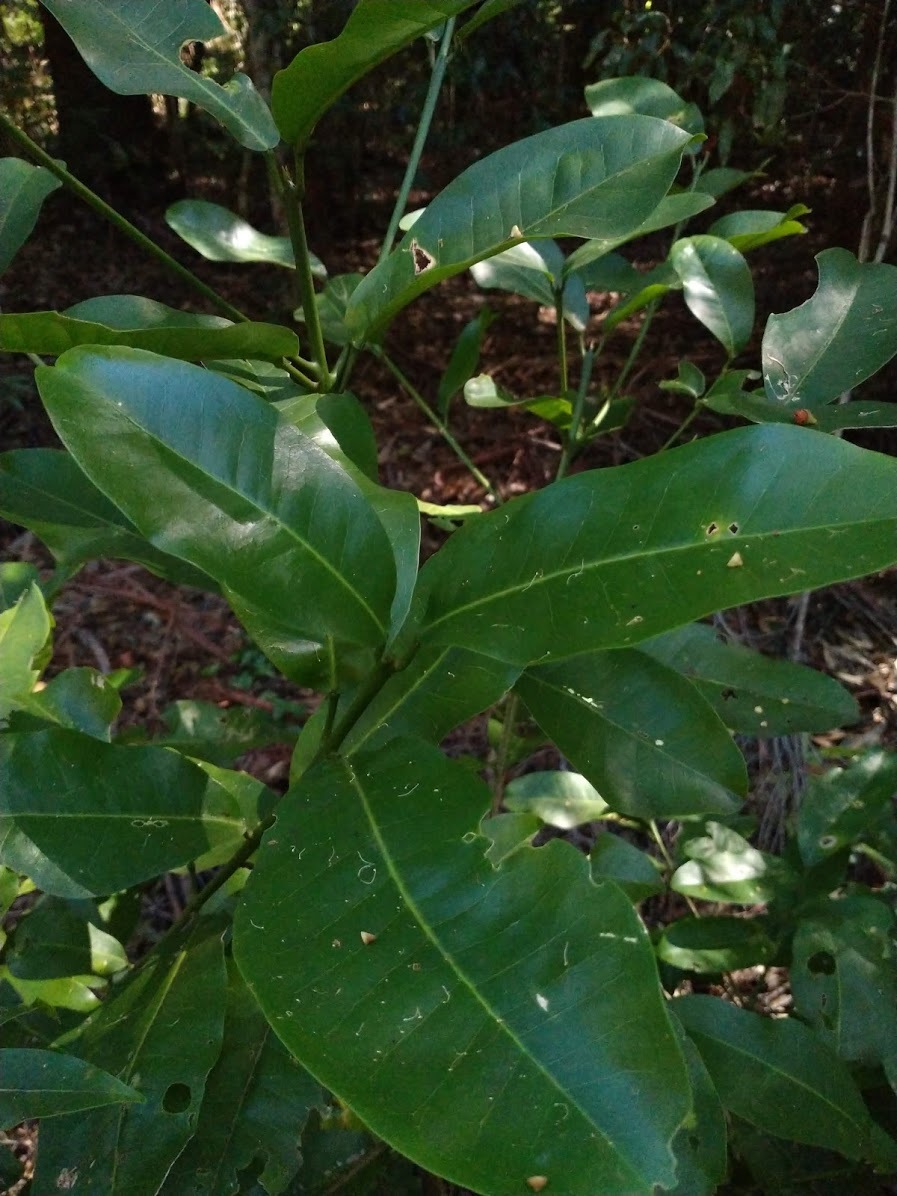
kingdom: Plantae
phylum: Tracheophyta
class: Magnoliopsida
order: Sapindales
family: Rutaceae
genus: Acronychia
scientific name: Acronychia wilcoxiana
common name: Silver-aspen
